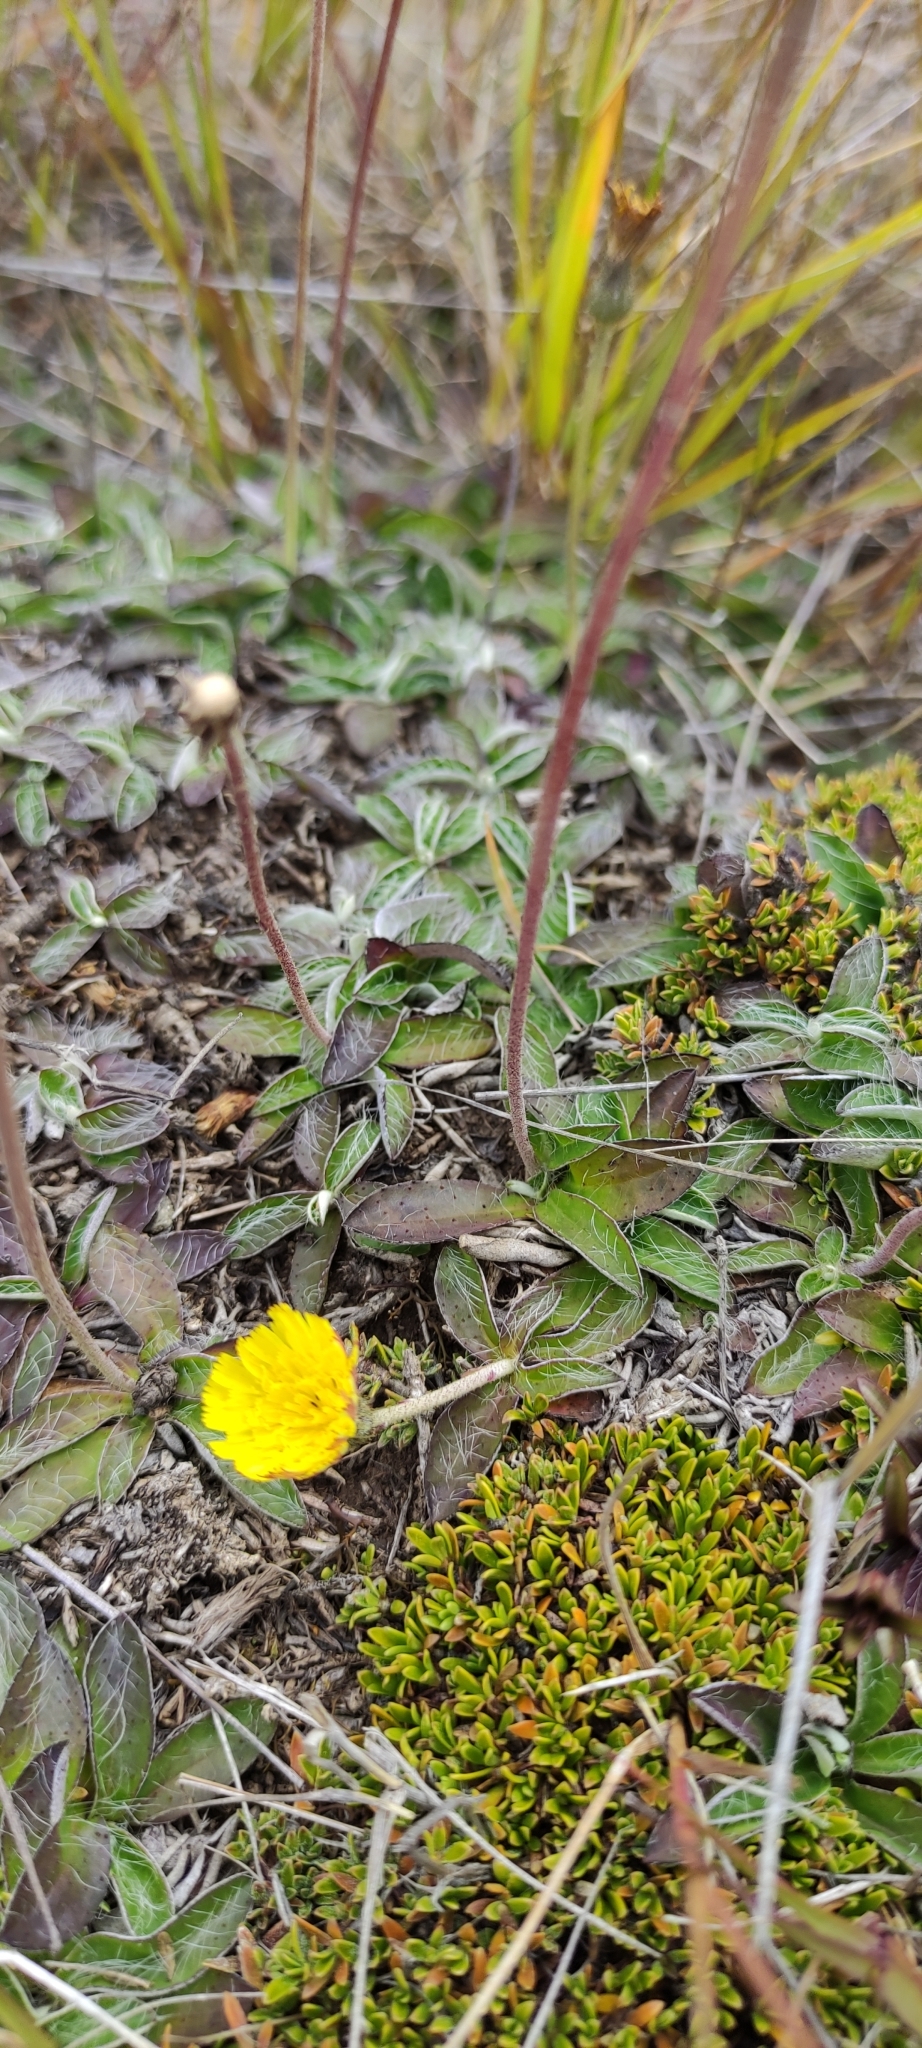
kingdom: Plantae
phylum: Tracheophyta
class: Magnoliopsida
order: Asterales
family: Asteraceae
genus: Pilosella
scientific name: Pilosella officinarum
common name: Mouse-ear hawkweed
